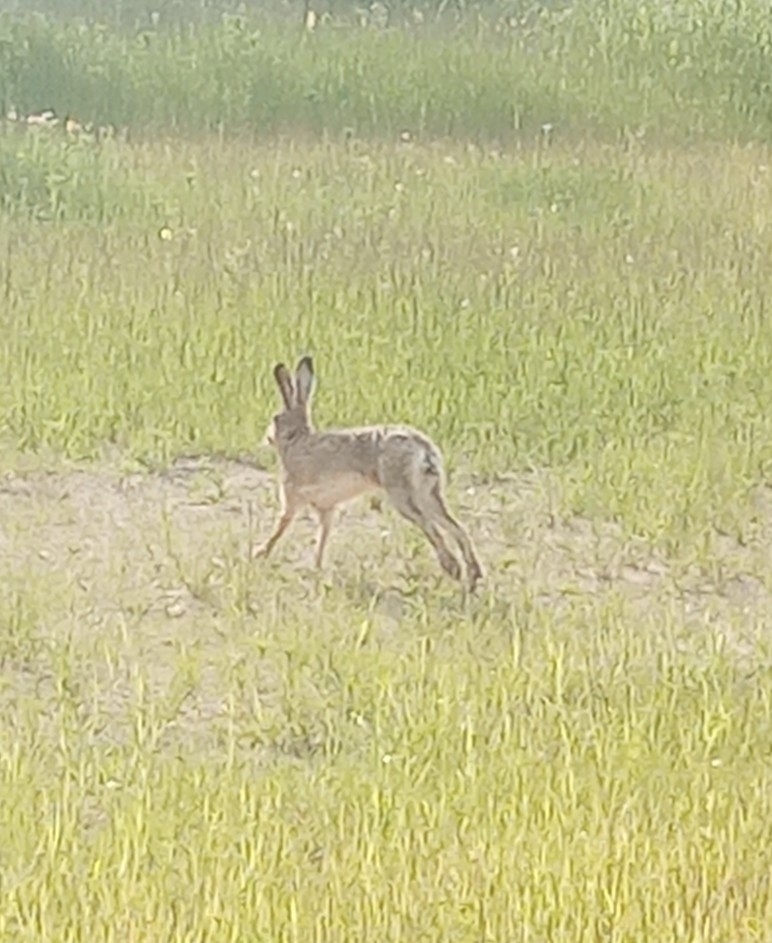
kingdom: Animalia
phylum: Chordata
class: Mammalia
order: Lagomorpha
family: Leporidae
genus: Lepus
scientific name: Lepus europaeus
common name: European hare
